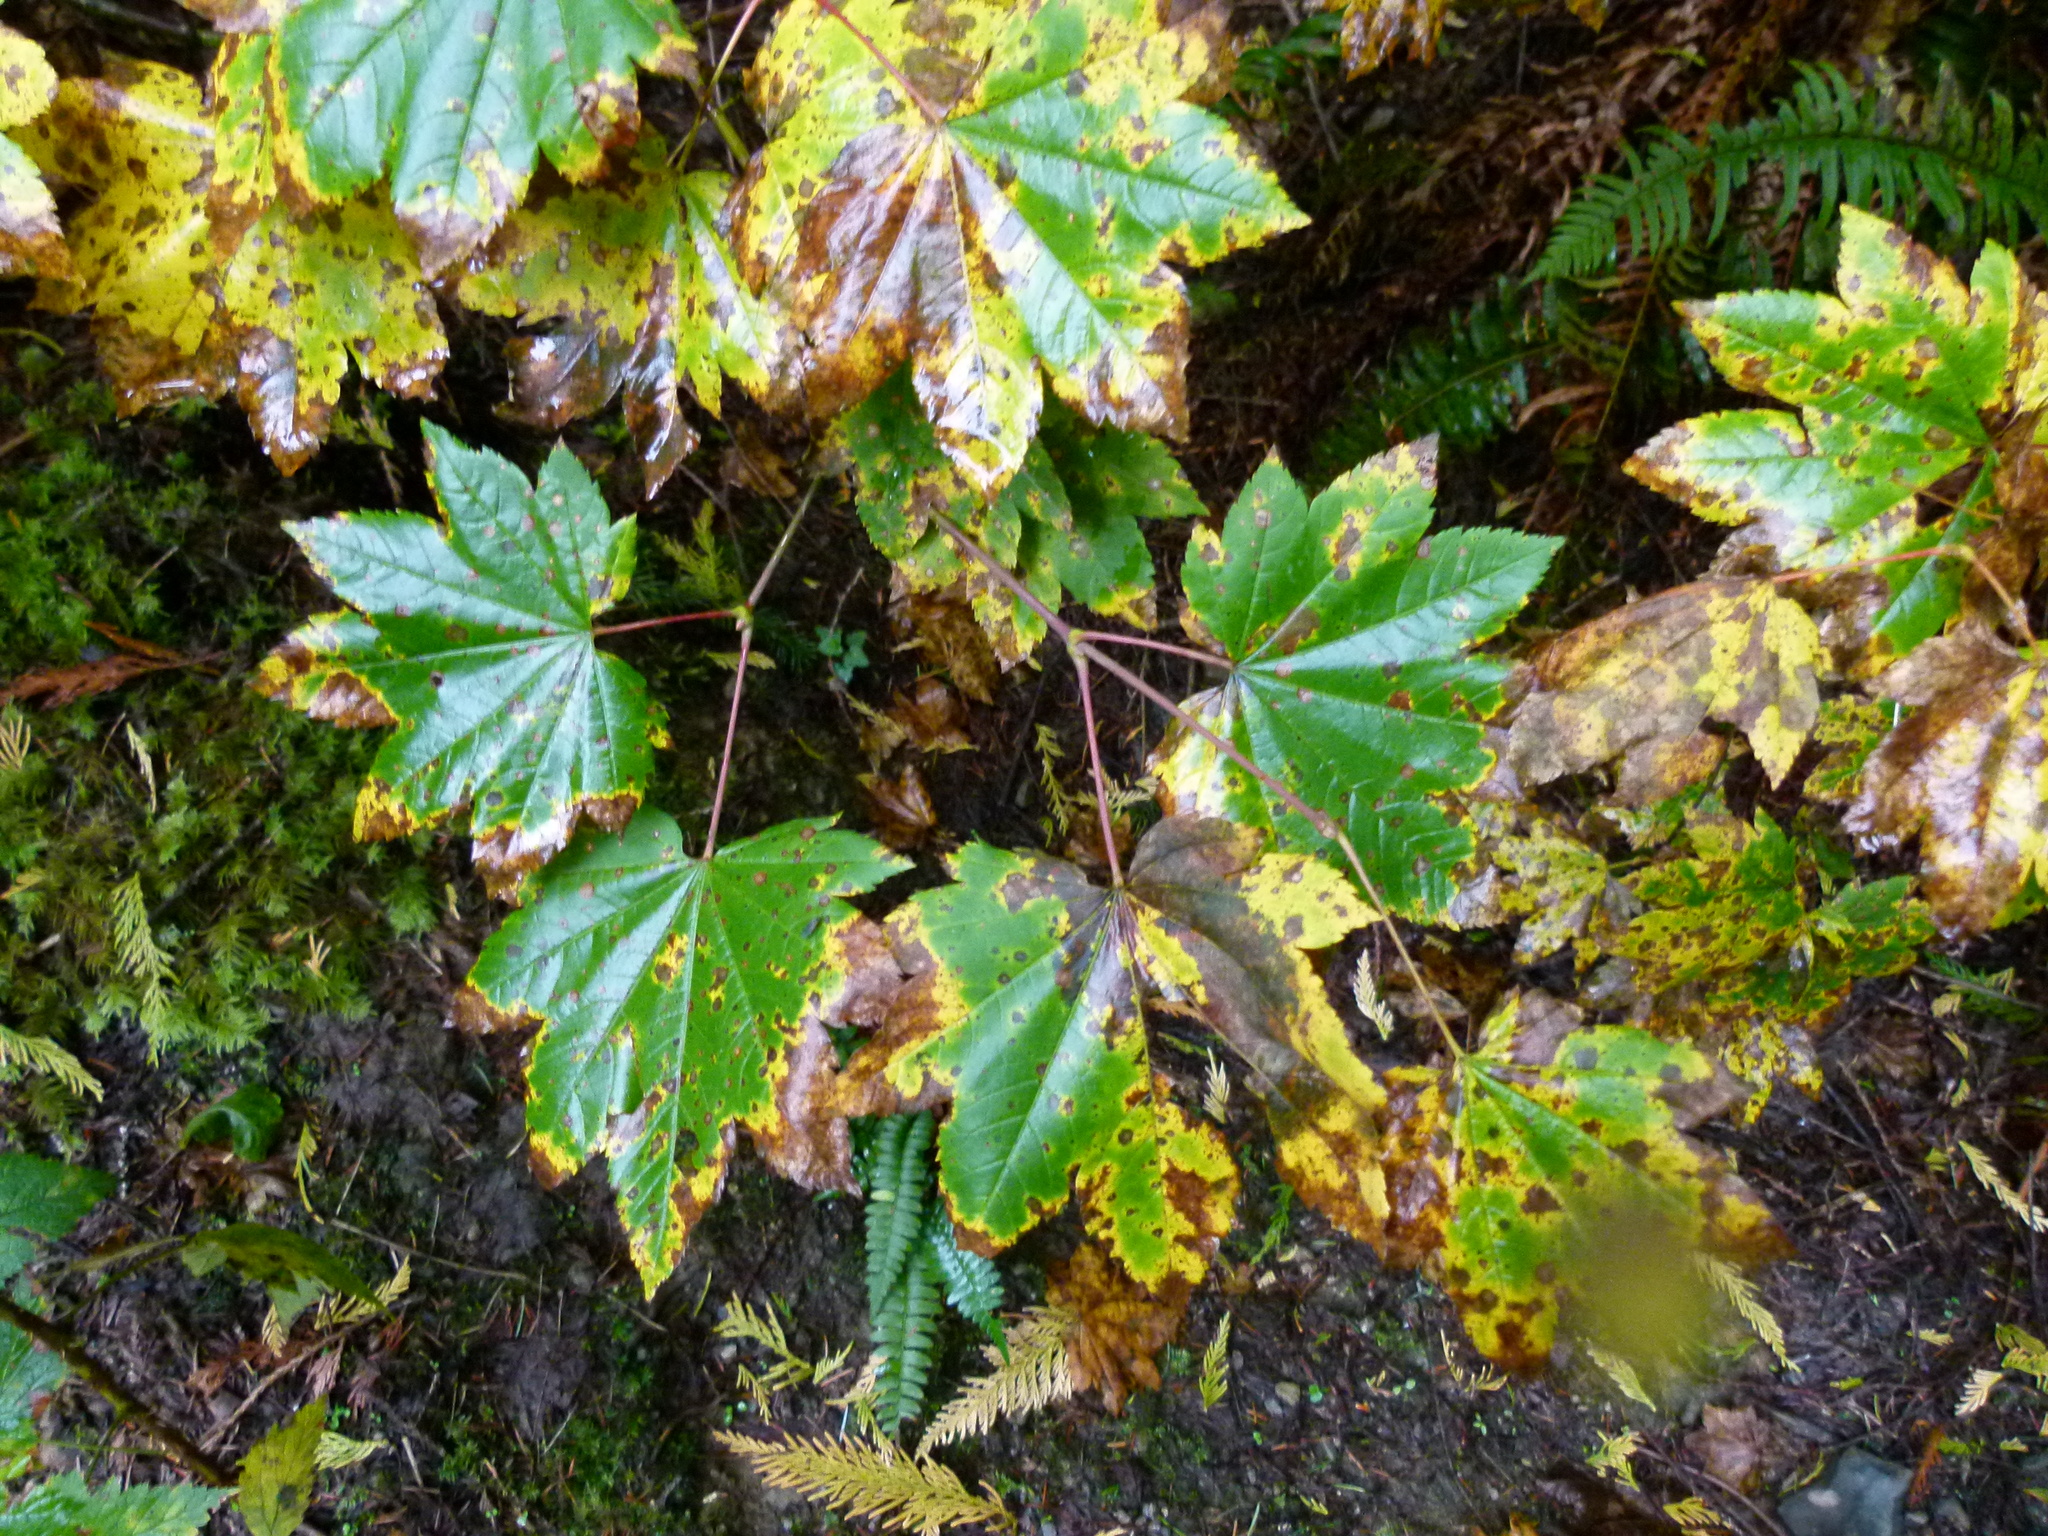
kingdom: Plantae
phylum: Tracheophyta
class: Magnoliopsida
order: Sapindales
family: Sapindaceae
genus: Acer
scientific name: Acer circinatum
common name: Vine maple
